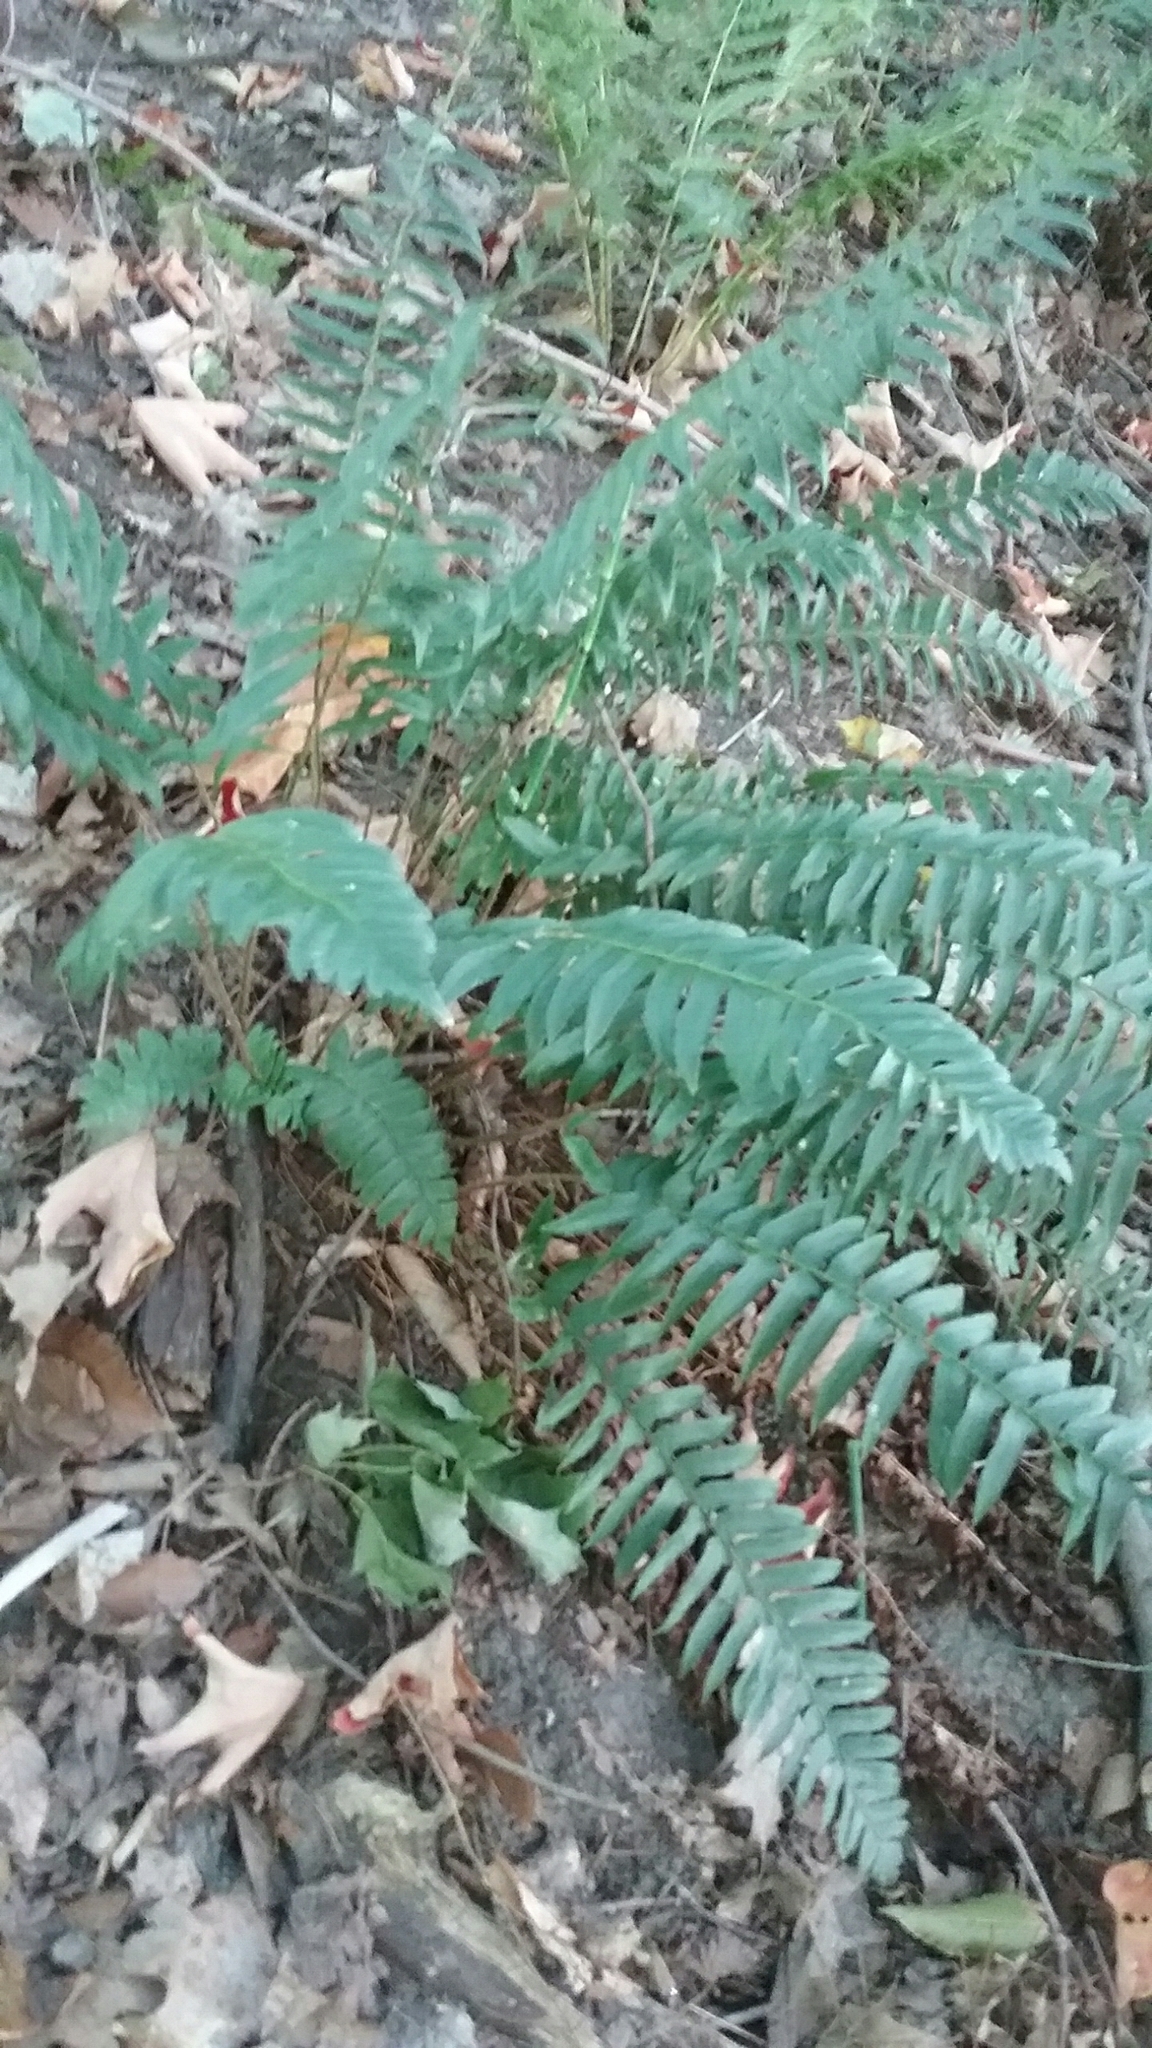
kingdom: Plantae
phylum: Tracheophyta
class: Polypodiopsida
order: Polypodiales
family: Dryopteridaceae
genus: Polystichum
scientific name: Polystichum acrostichoides
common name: Christmas fern
